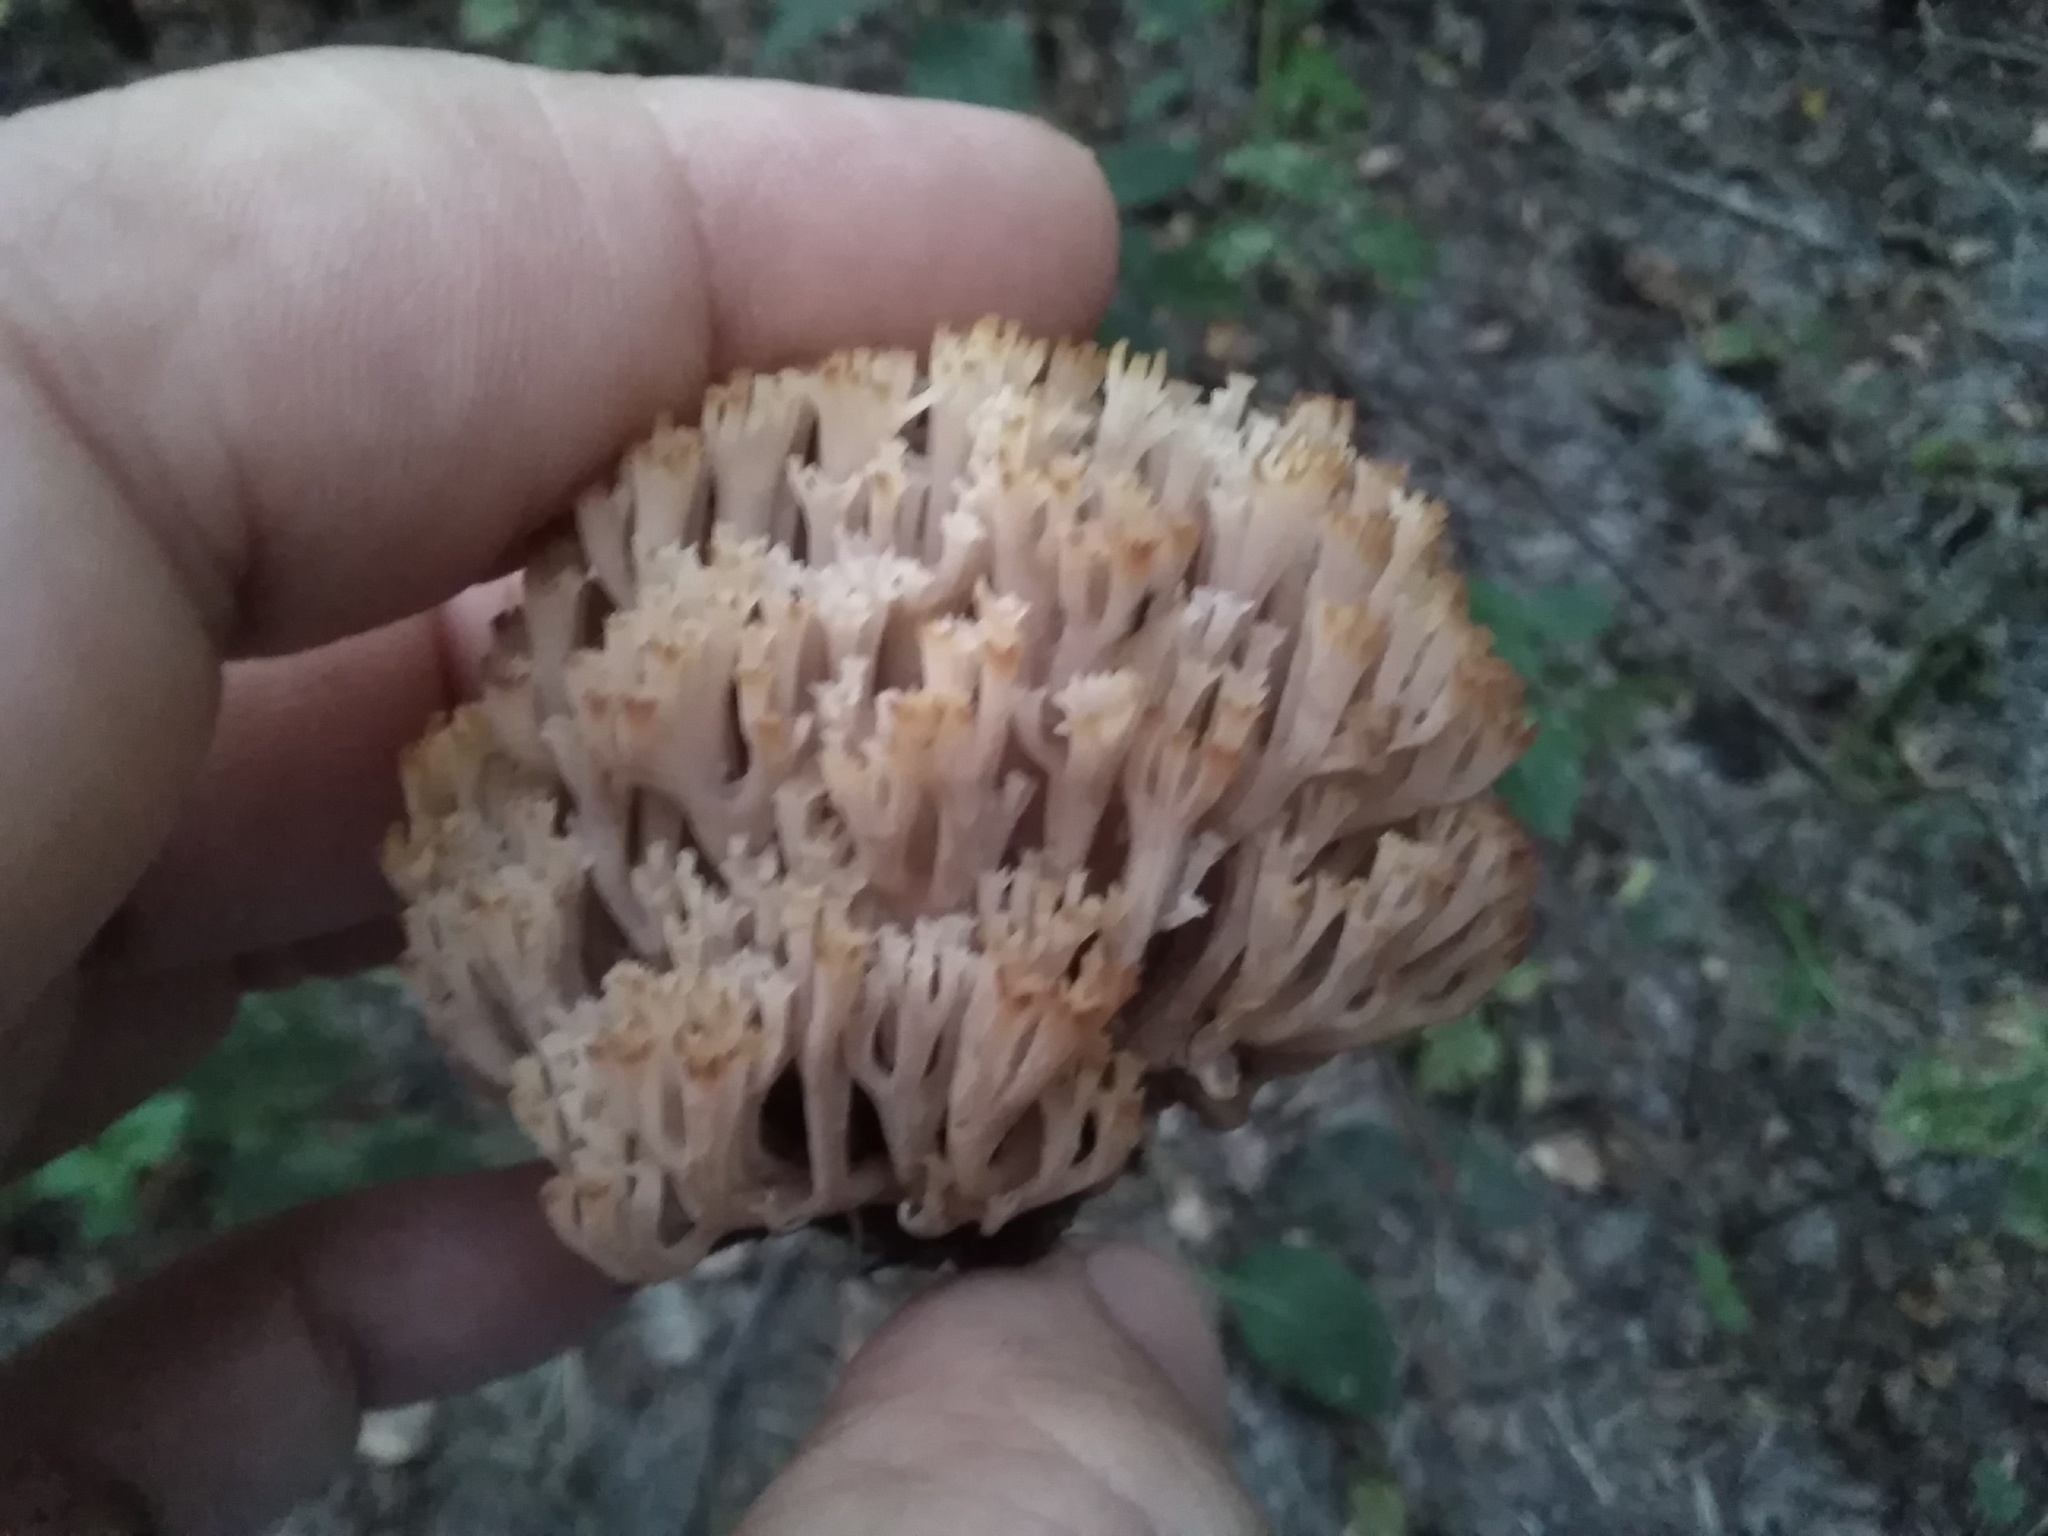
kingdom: Fungi
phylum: Basidiomycota
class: Agaricomycetes
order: Russulales
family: Auriscalpiaceae
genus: Artomyces
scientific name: Artomyces pyxidatus
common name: Crown-tipped coral fungus
